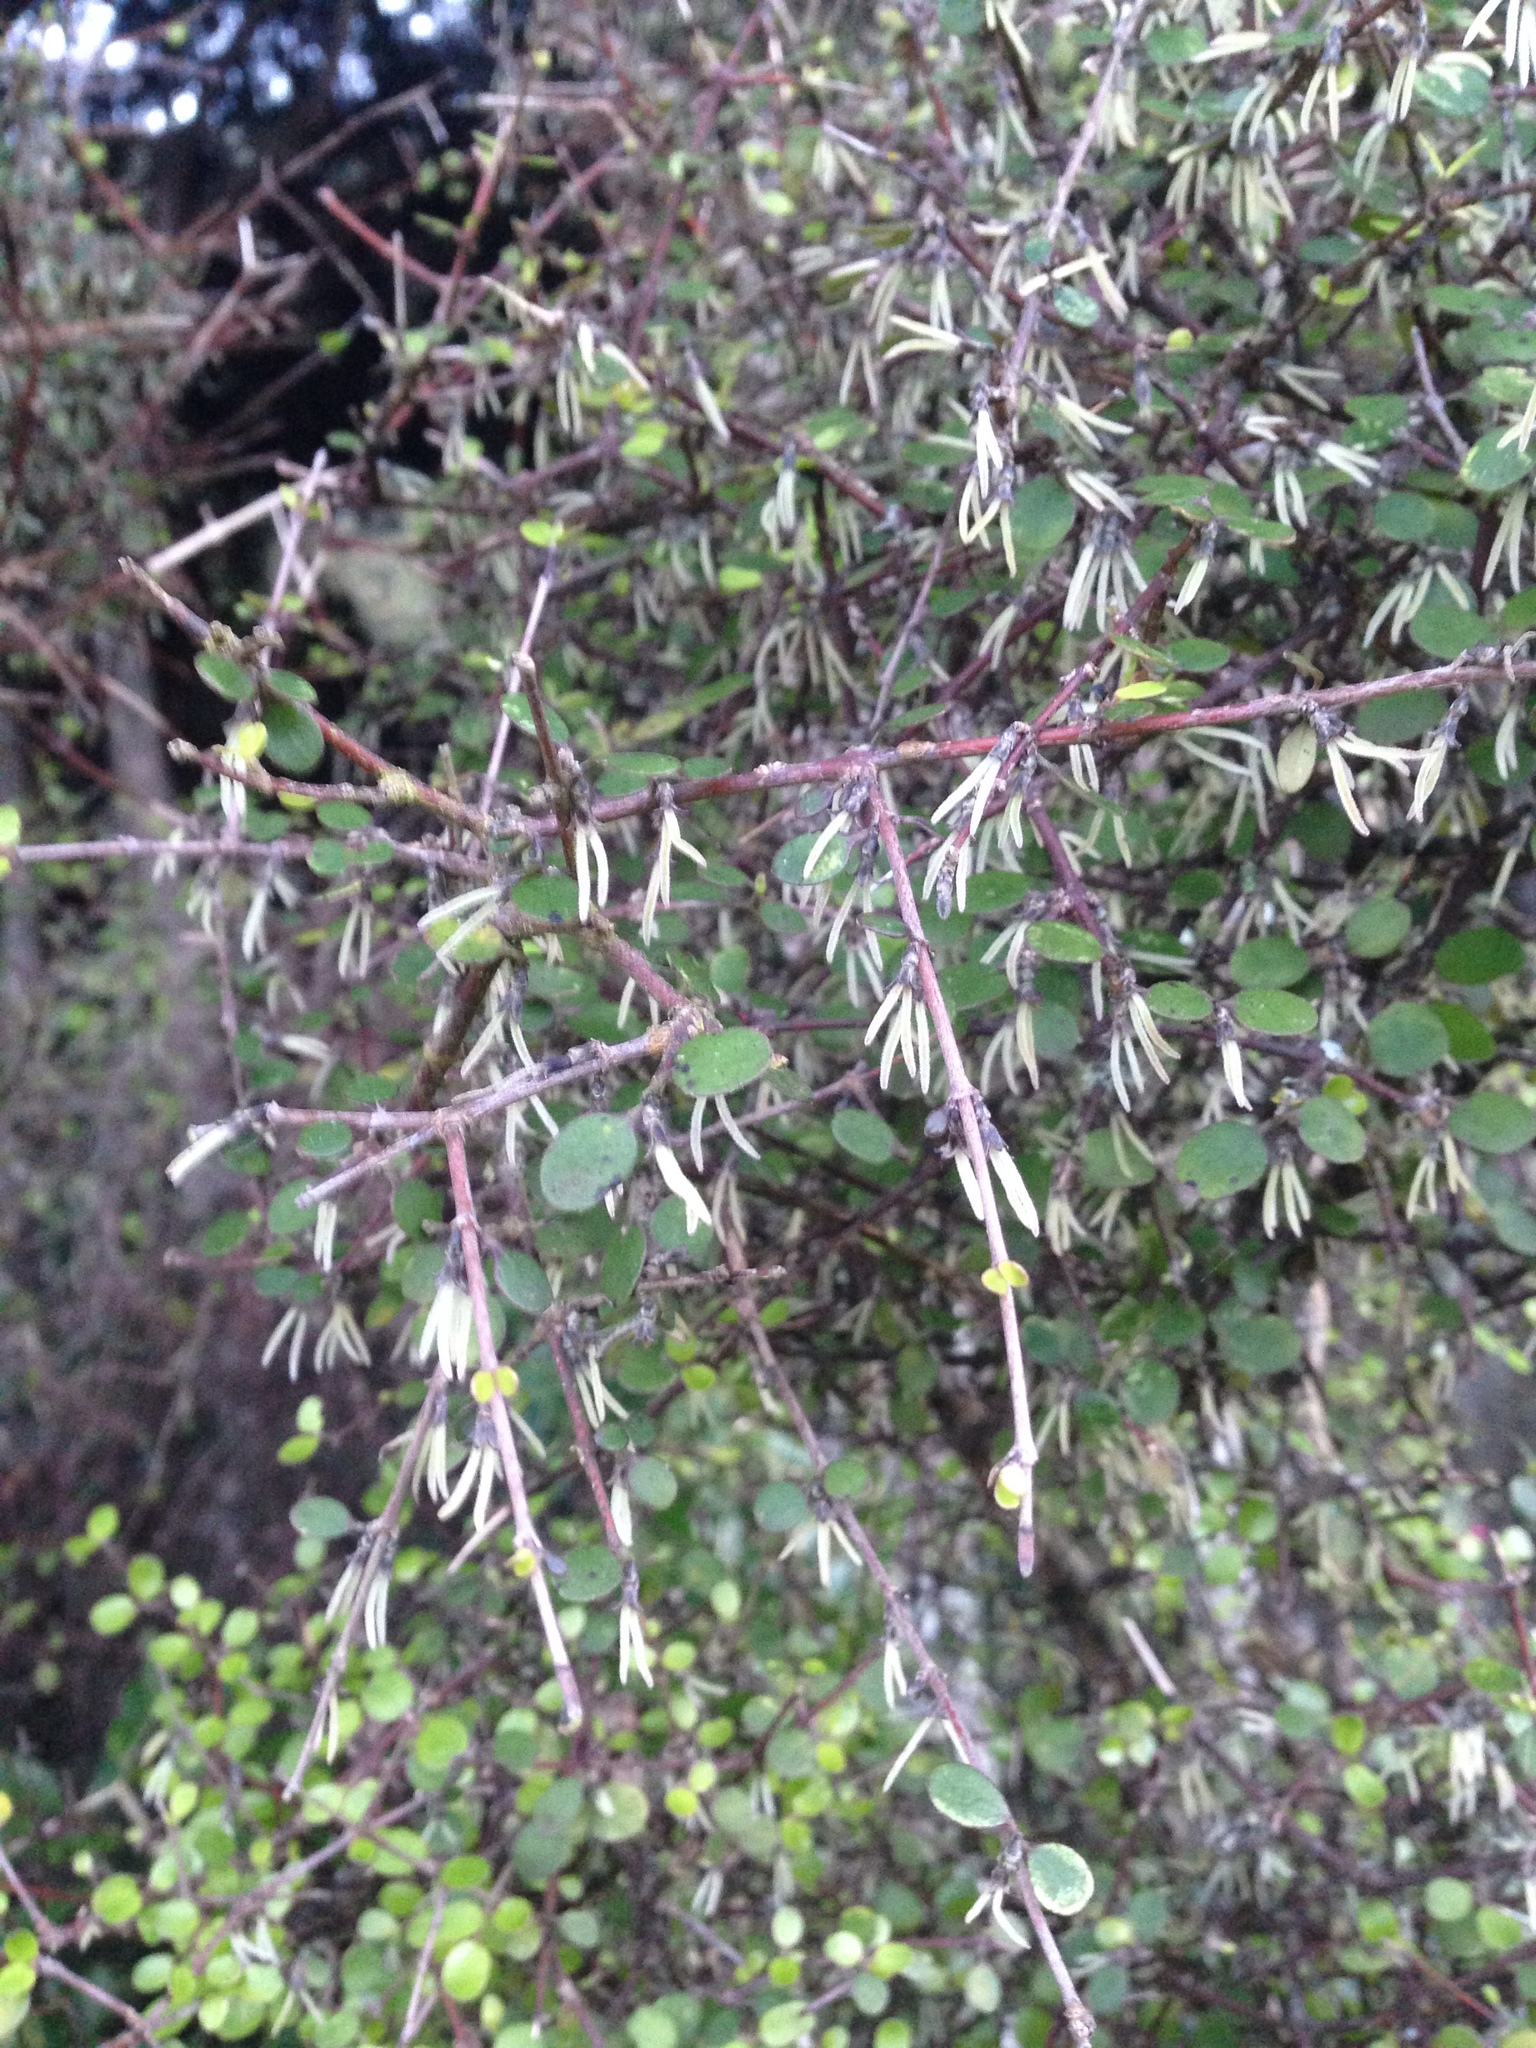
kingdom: Plantae
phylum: Tracheophyta
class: Magnoliopsida
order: Gentianales
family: Rubiaceae
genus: Coprosma
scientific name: Coprosma crassifolia
